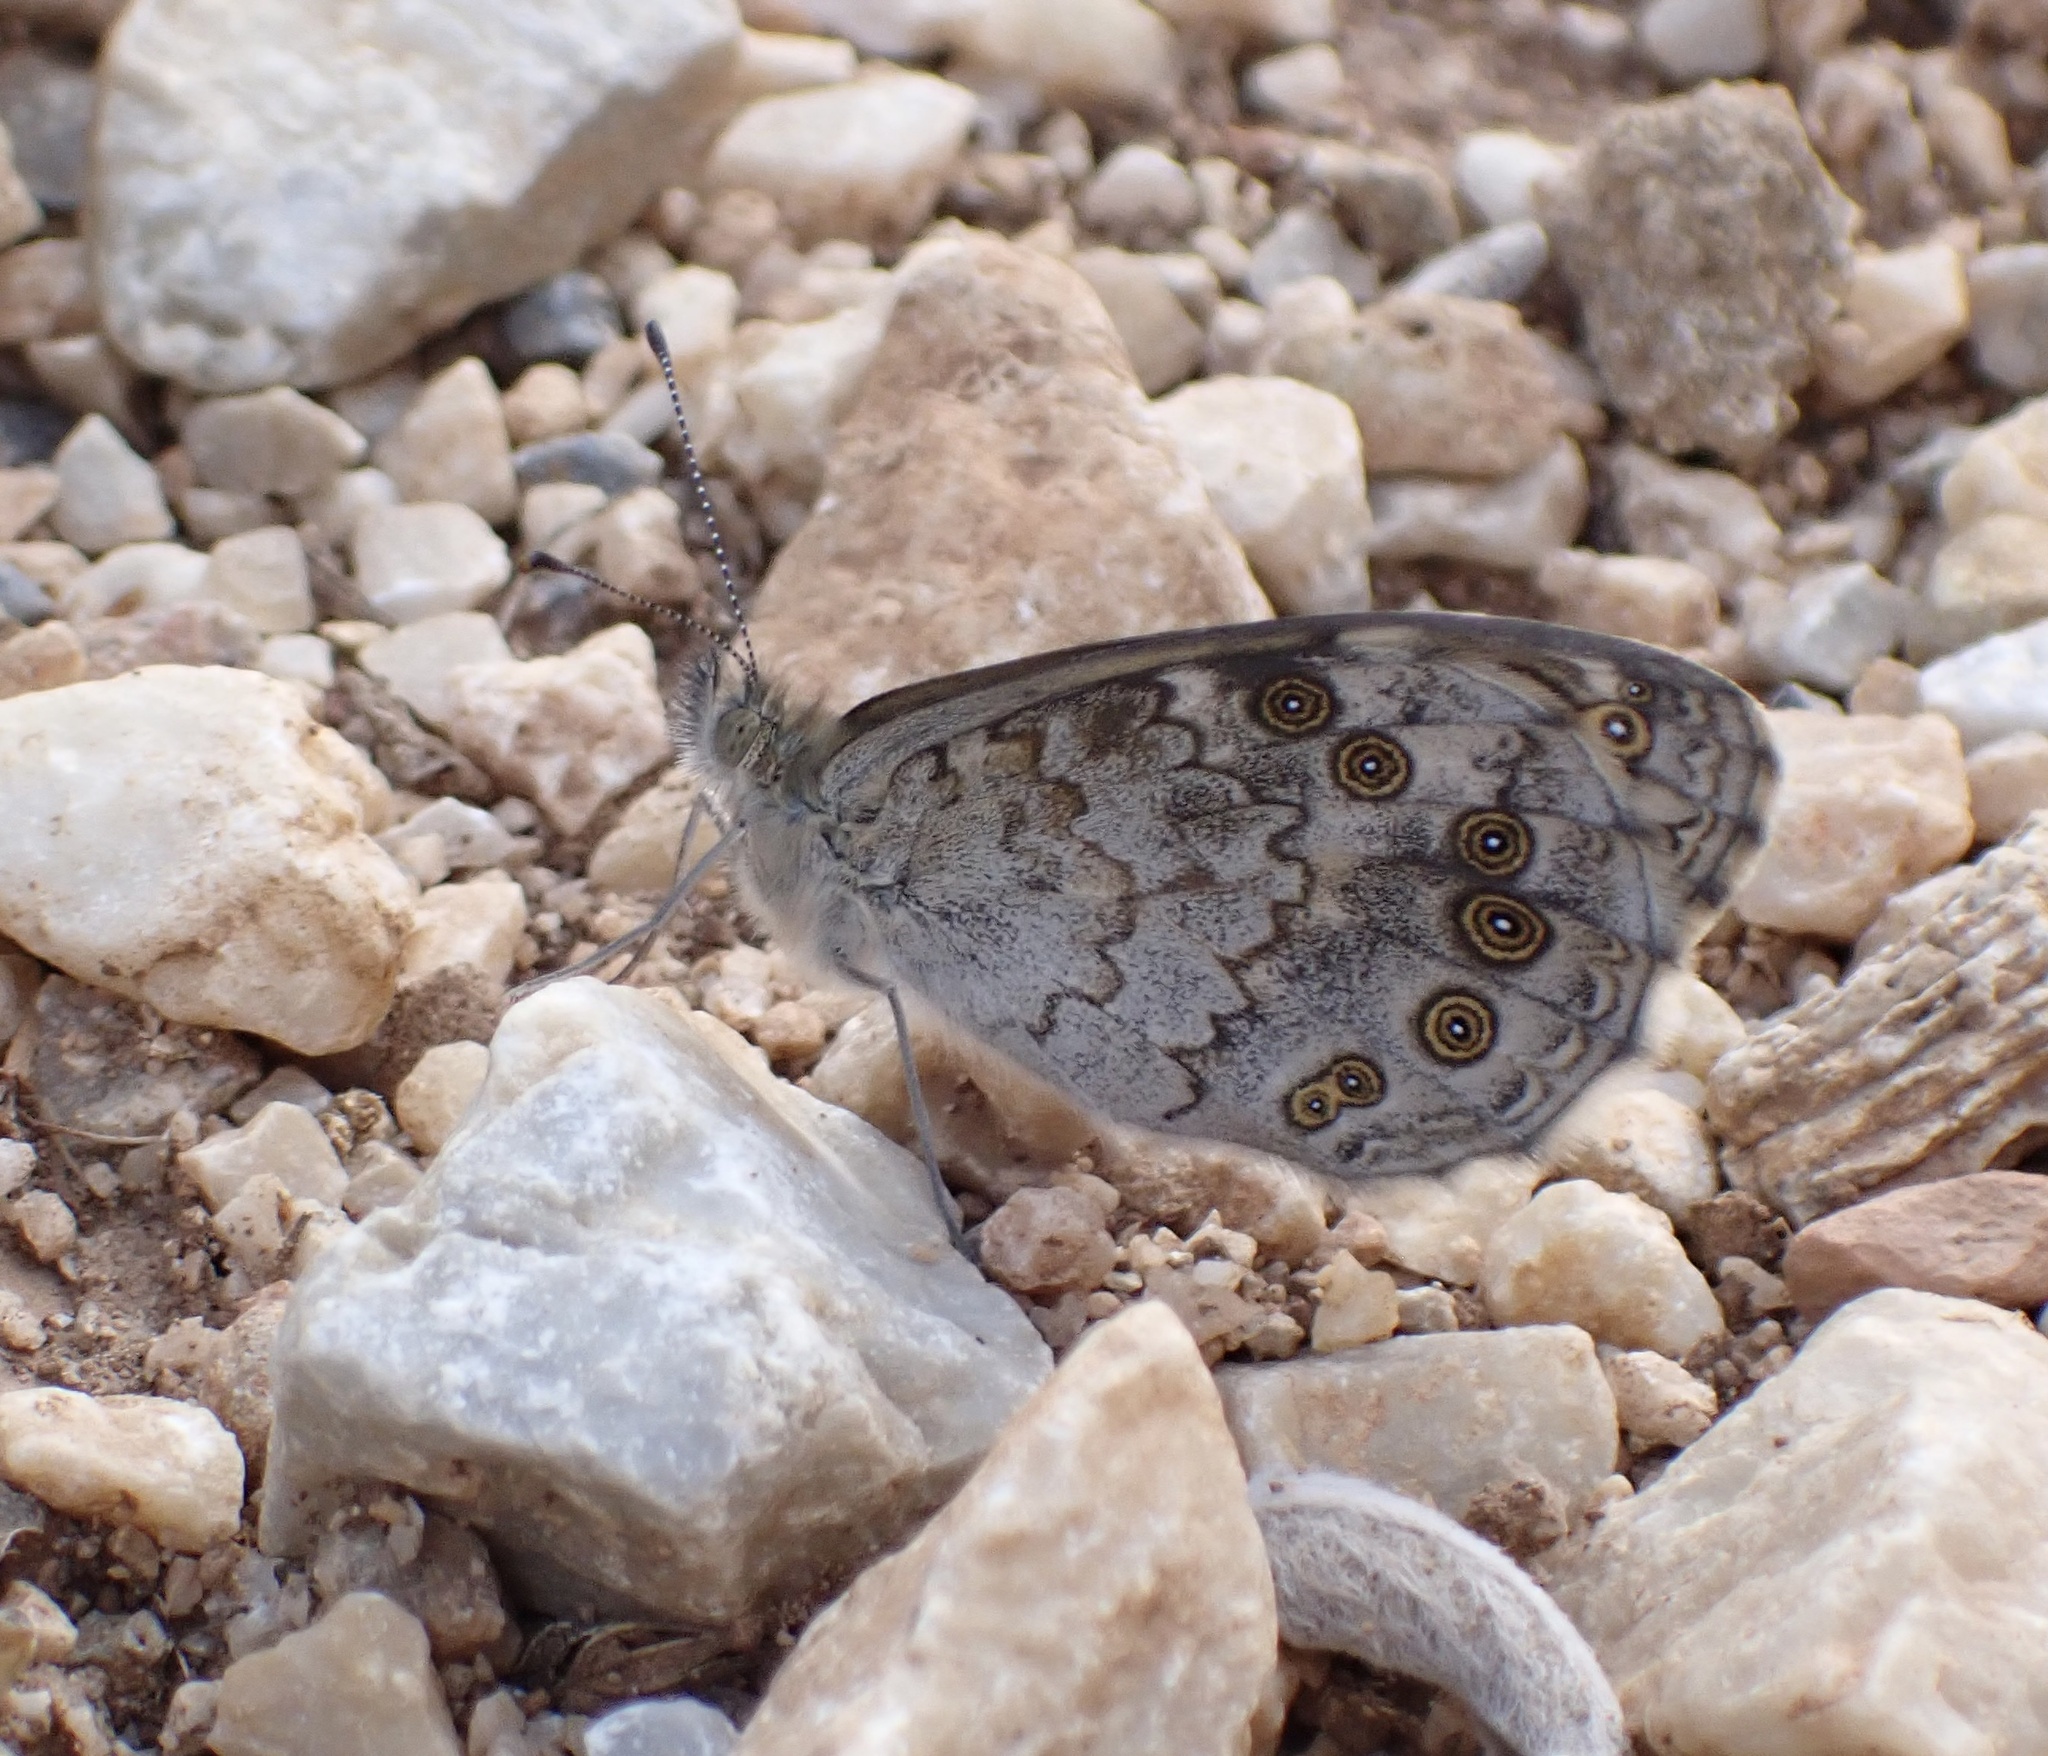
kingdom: Animalia
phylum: Arthropoda
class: Insecta
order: Lepidoptera
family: Nymphalidae
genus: Pararge
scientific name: Pararge Lasiommata megera
